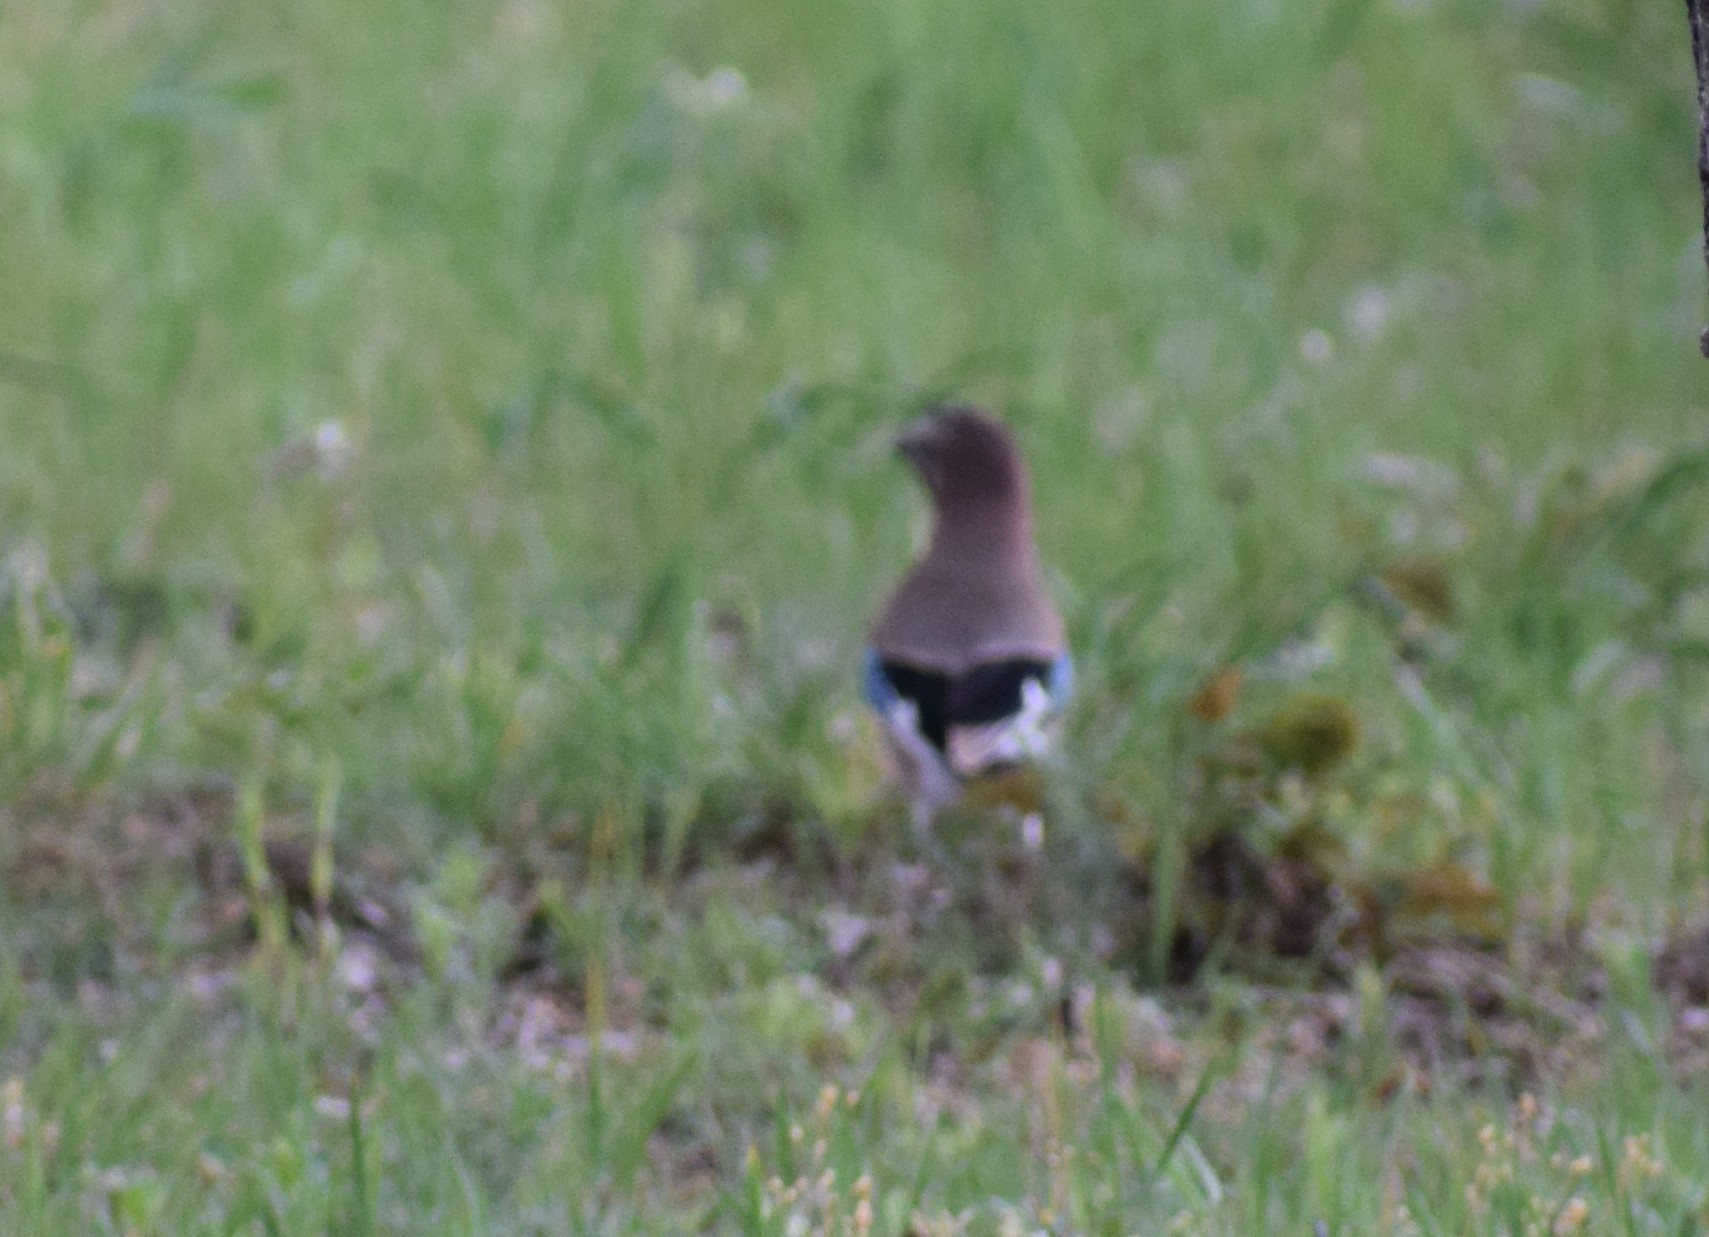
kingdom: Animalia
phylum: Chordata
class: Aves
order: Passeriformes
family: Corvidae
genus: Garrulus
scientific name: Garrulus glandarius
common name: Eurasian jay
